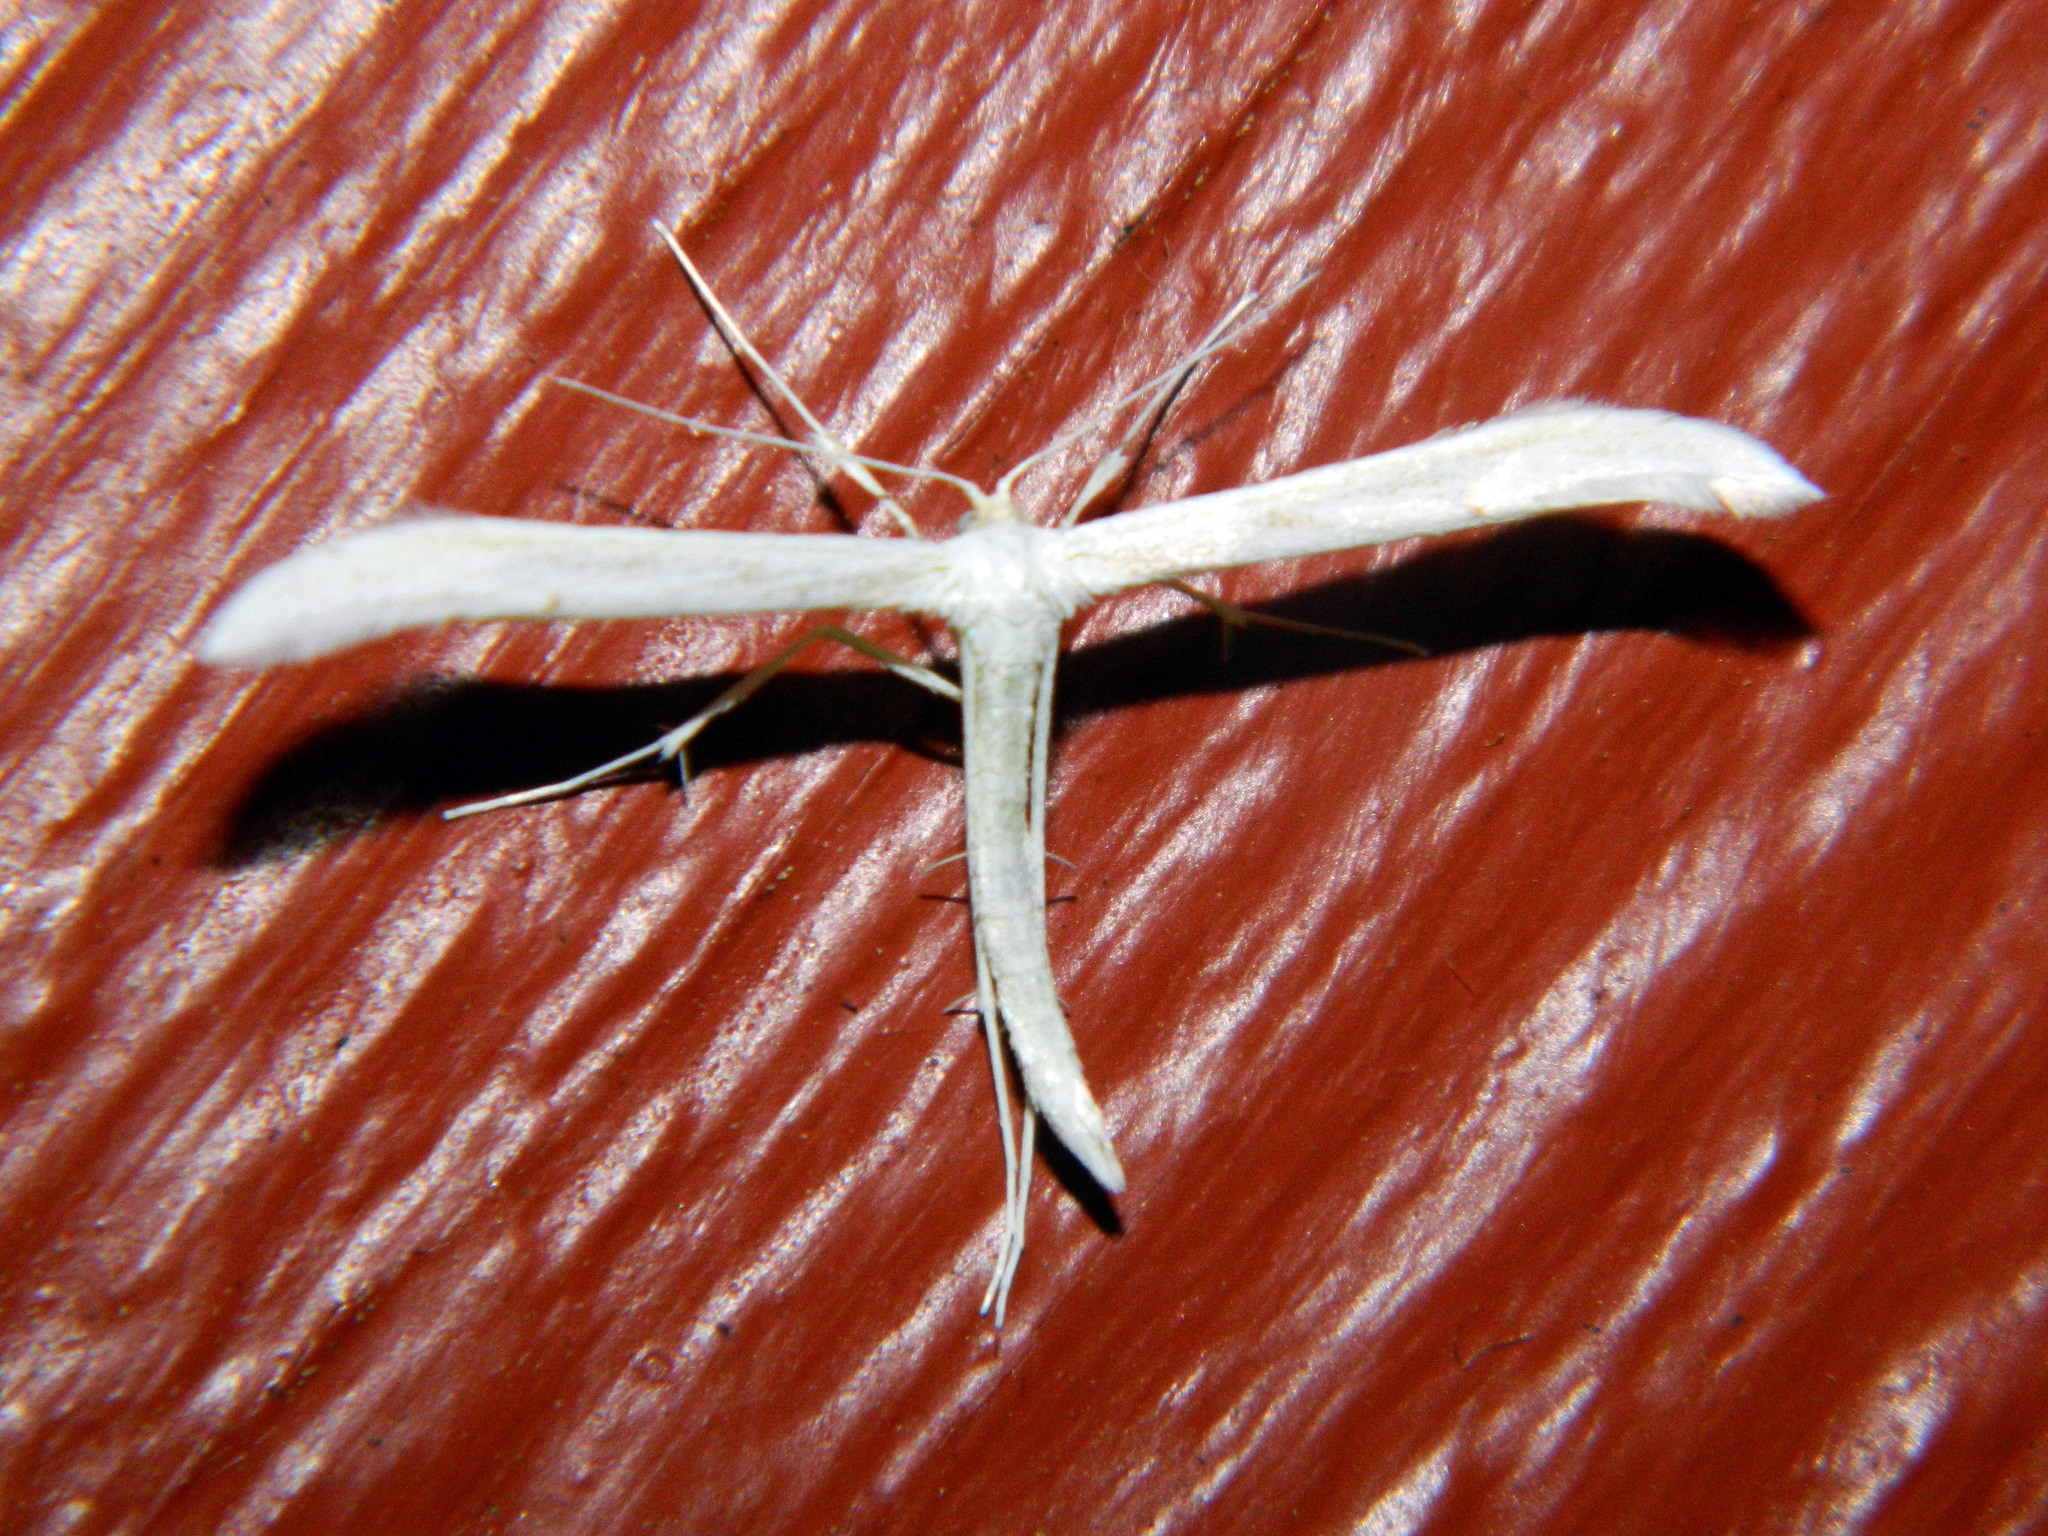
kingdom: Animalia
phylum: Arthropoda
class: Insecta
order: Lepidoptera
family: Pterophoridae
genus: Hellinsia
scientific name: Hellinsia homodactylus
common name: Plain plume moth
